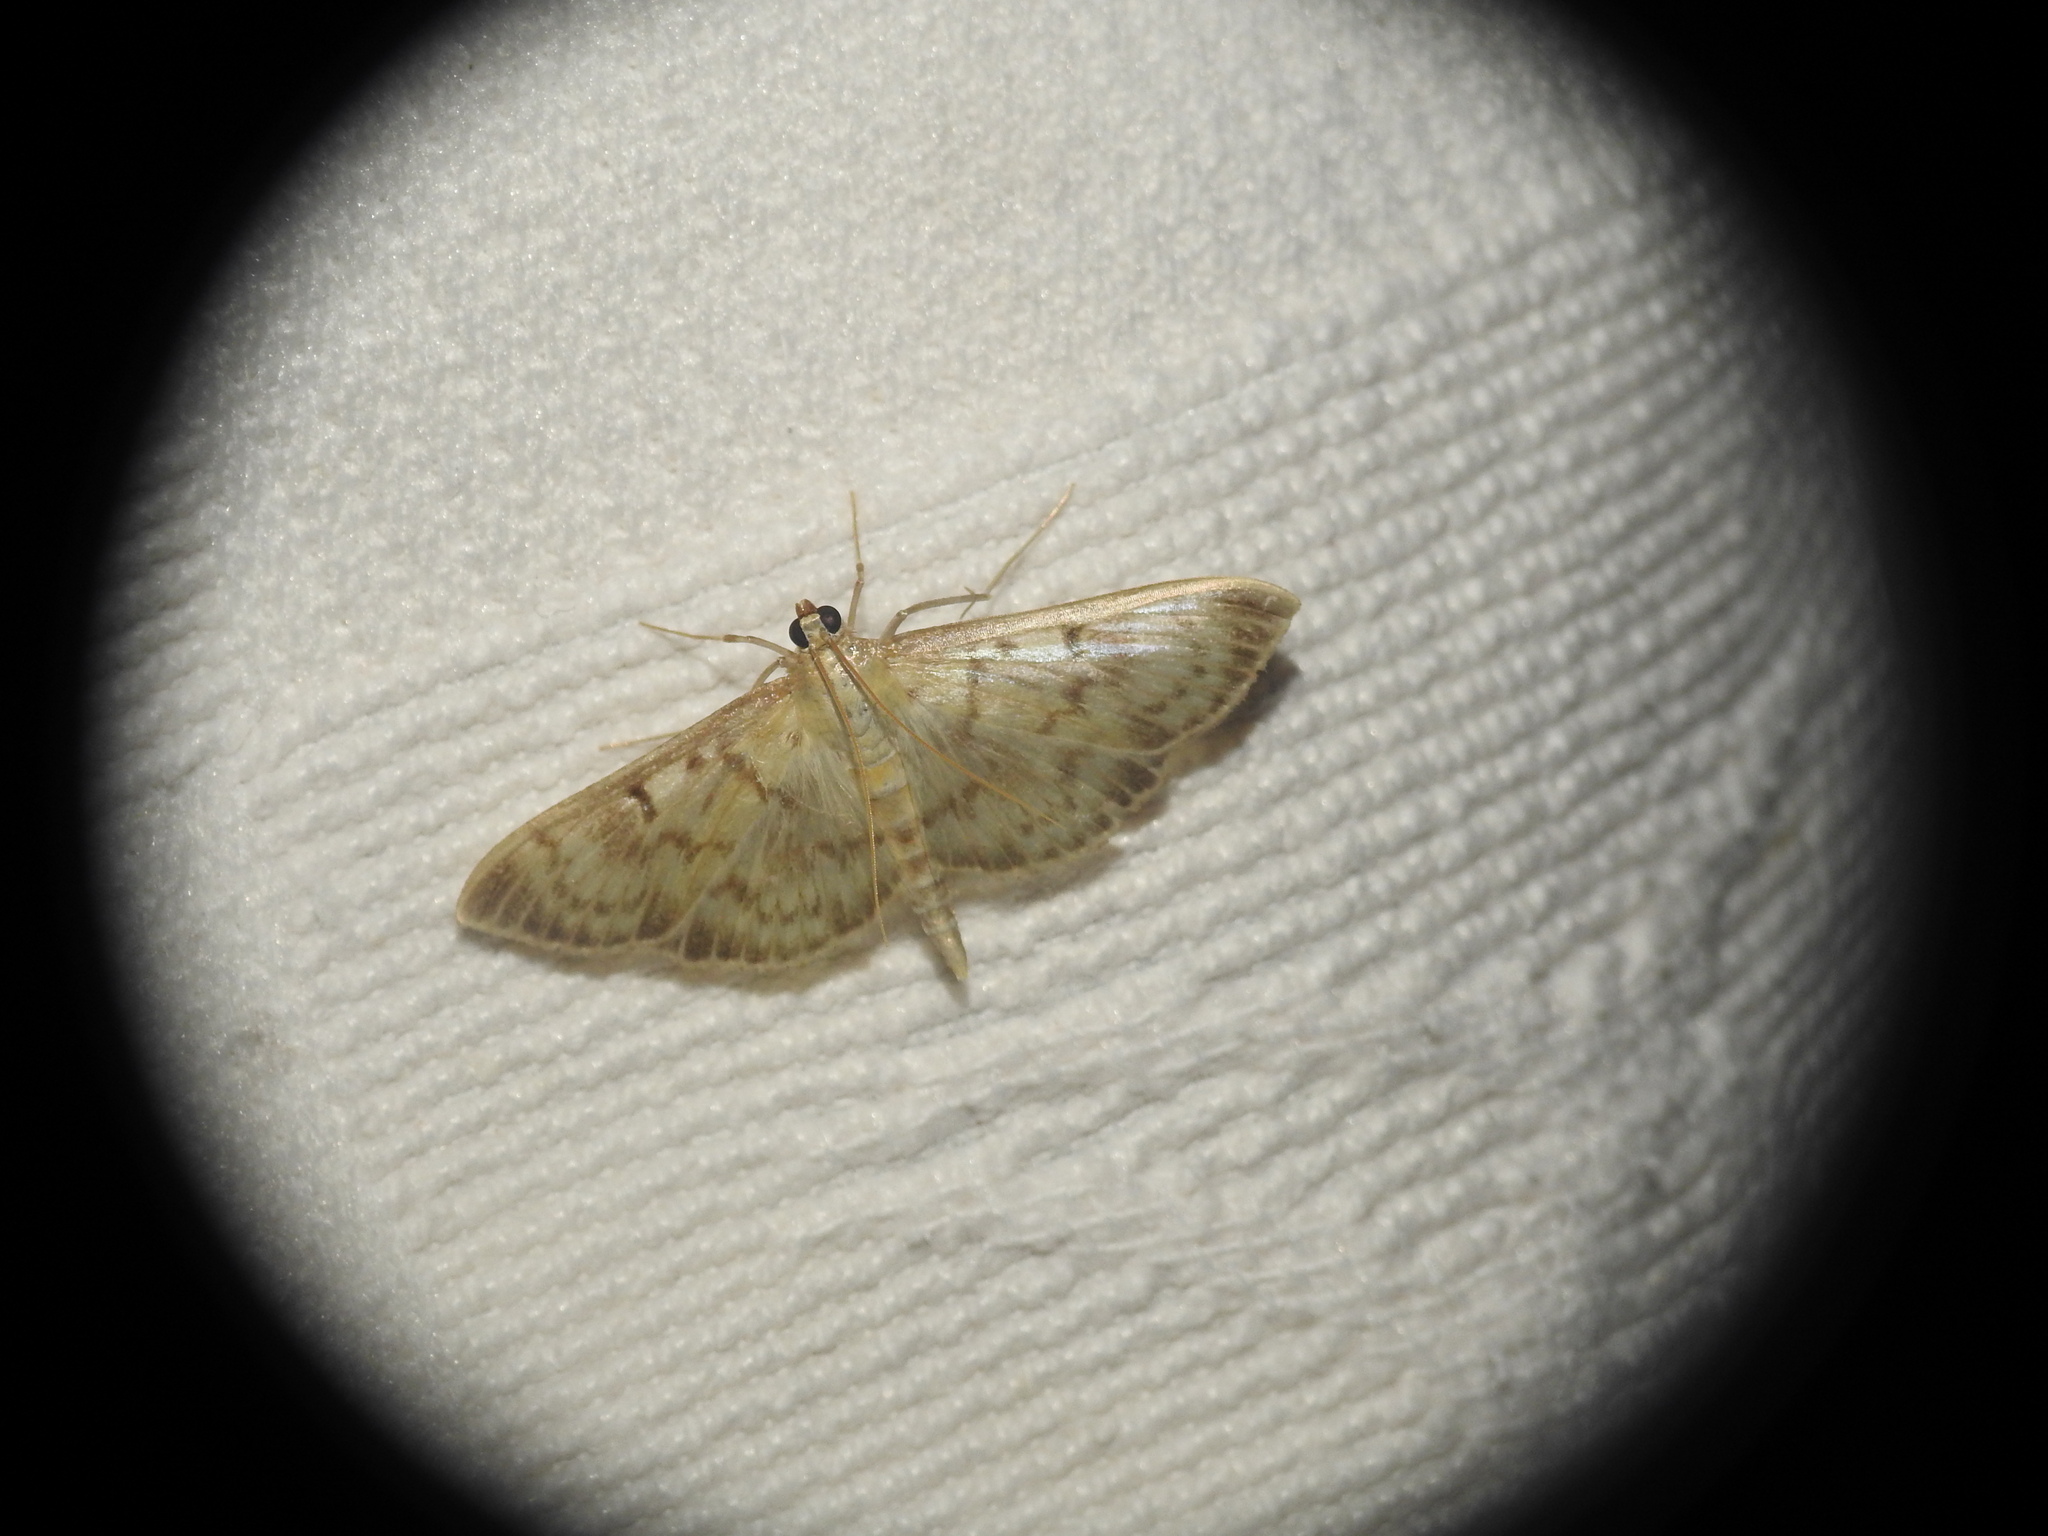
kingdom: Animalia
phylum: Arthropoda
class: Insecta
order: Lepidoptera
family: Crambidae
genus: Patania
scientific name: Patania ruralis
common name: Mother of pearl
